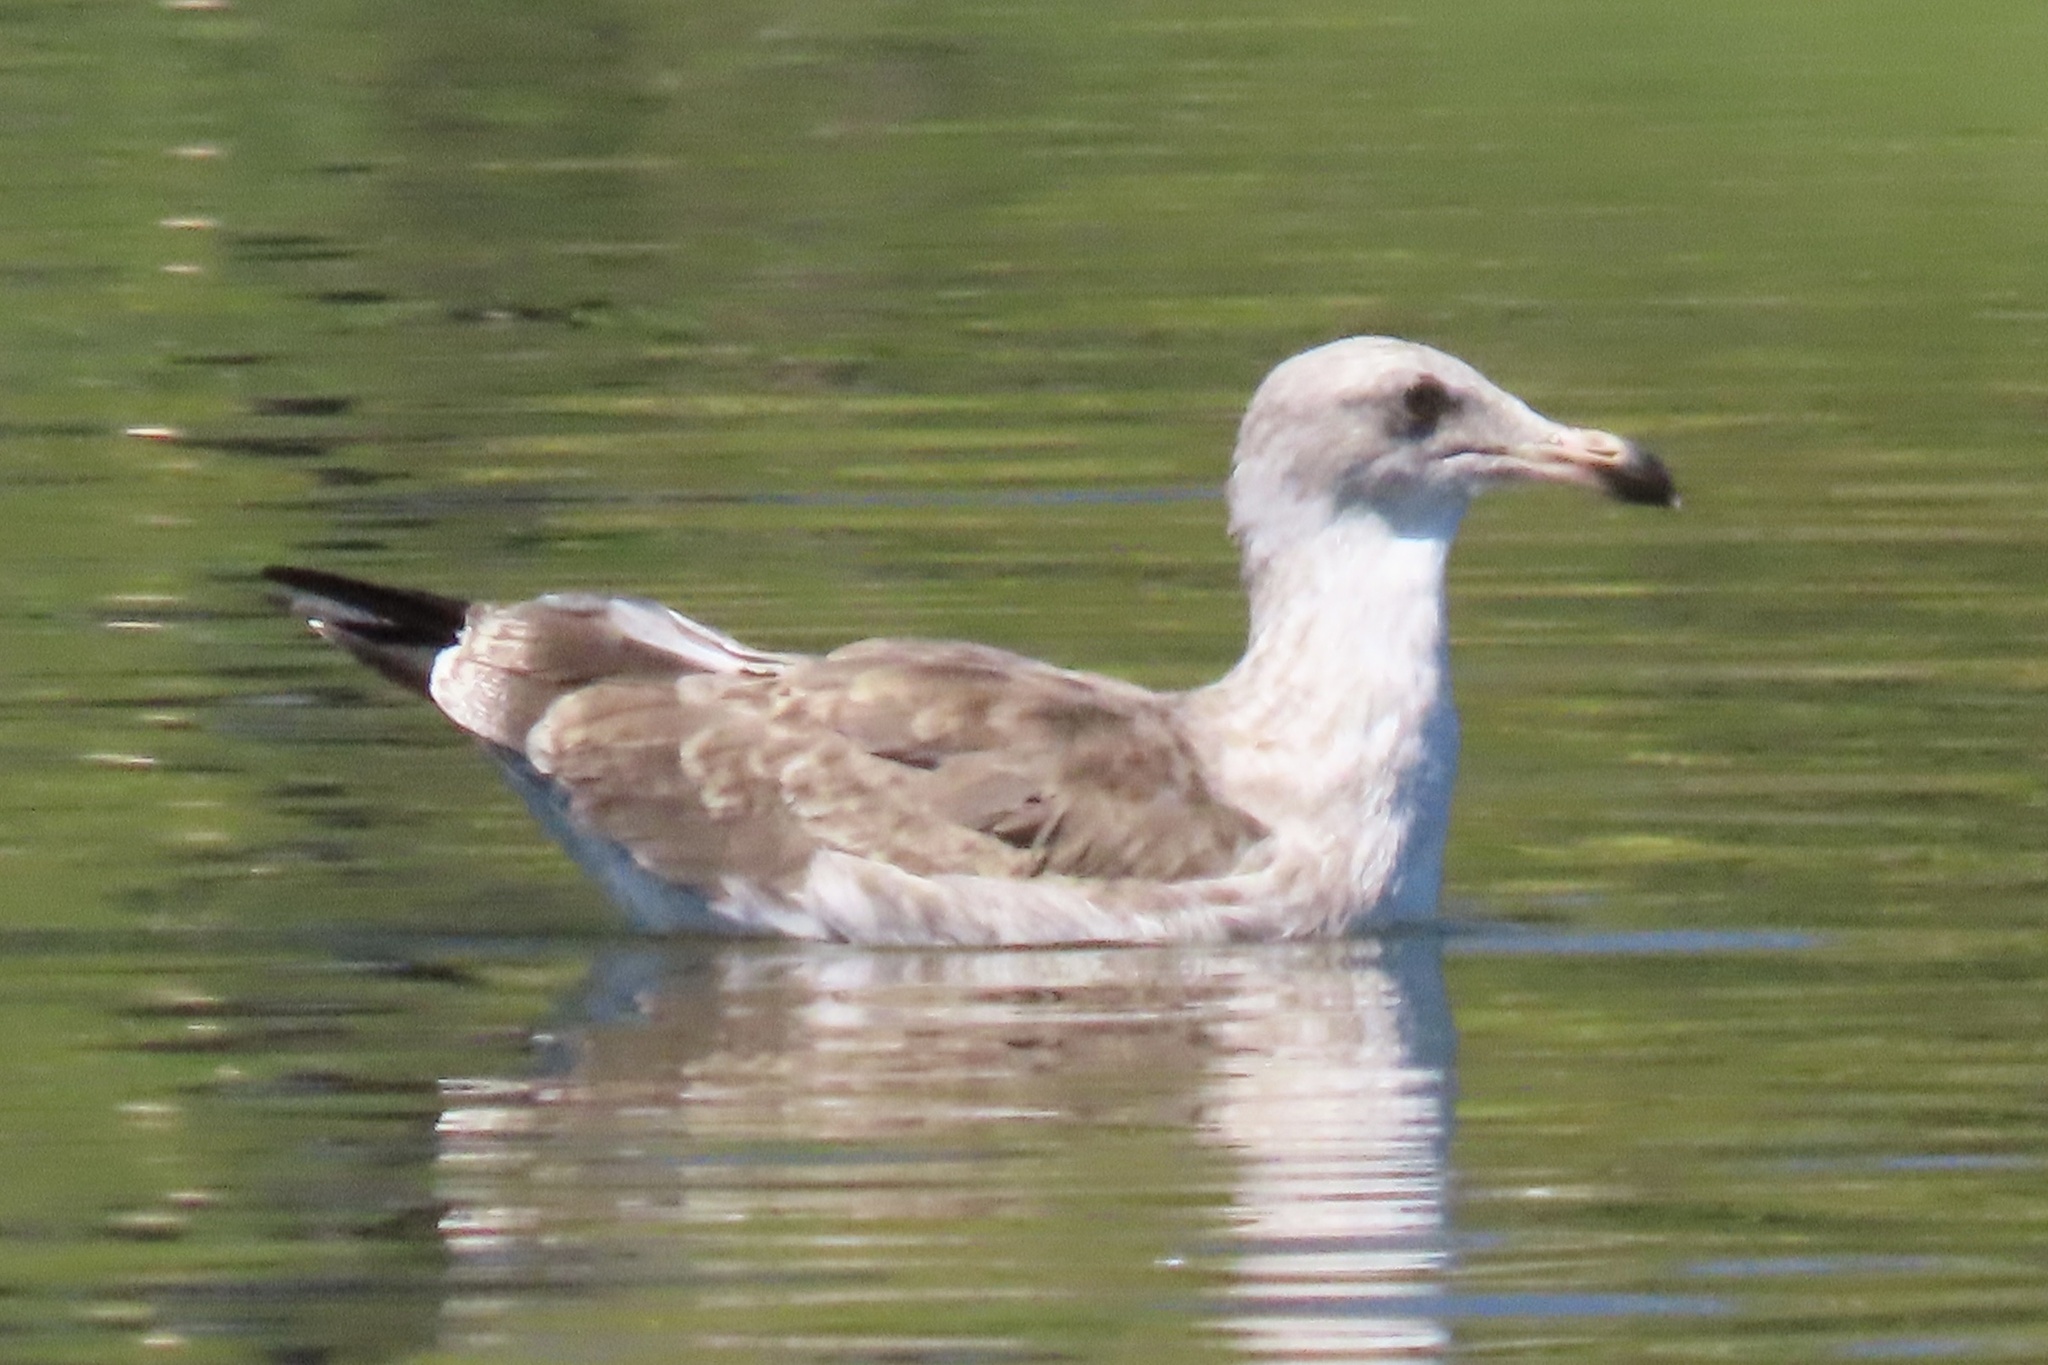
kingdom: Animalia
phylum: Chordata
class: Aves
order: Charadriiformes
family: Laridae
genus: Larus
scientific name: Larus occidentalis
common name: Western gull
